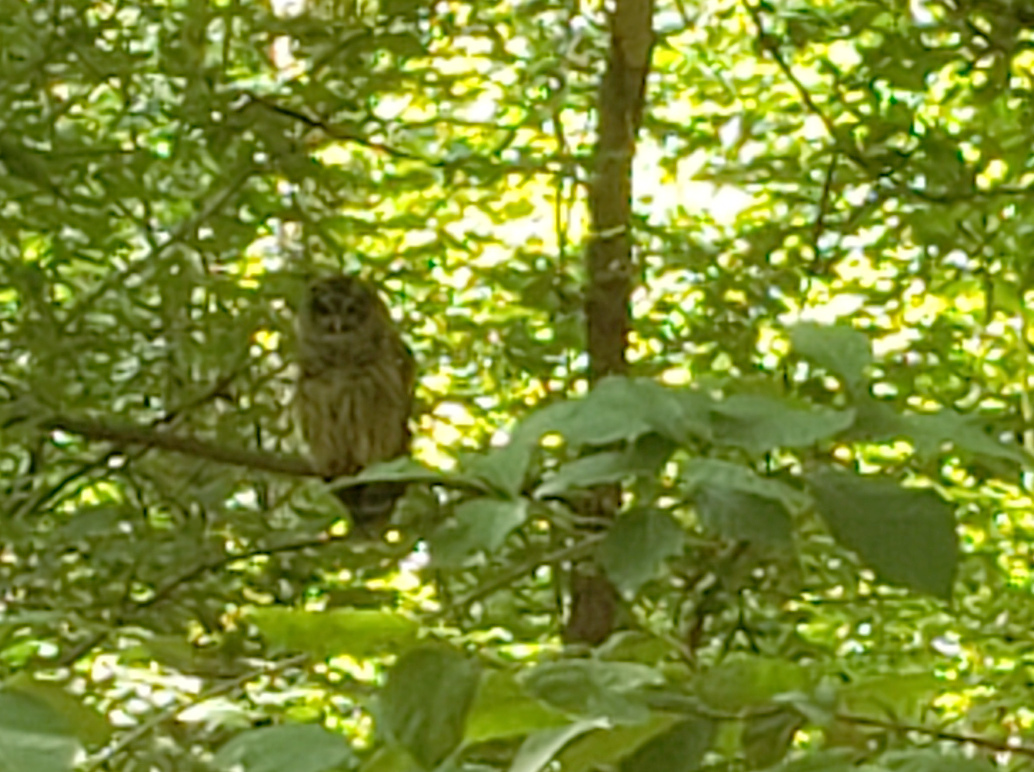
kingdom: Animalia
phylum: Chordata
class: Aves
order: Strigiformes
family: Strigidae
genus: Strix
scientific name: Strix varia
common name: Barred owl
